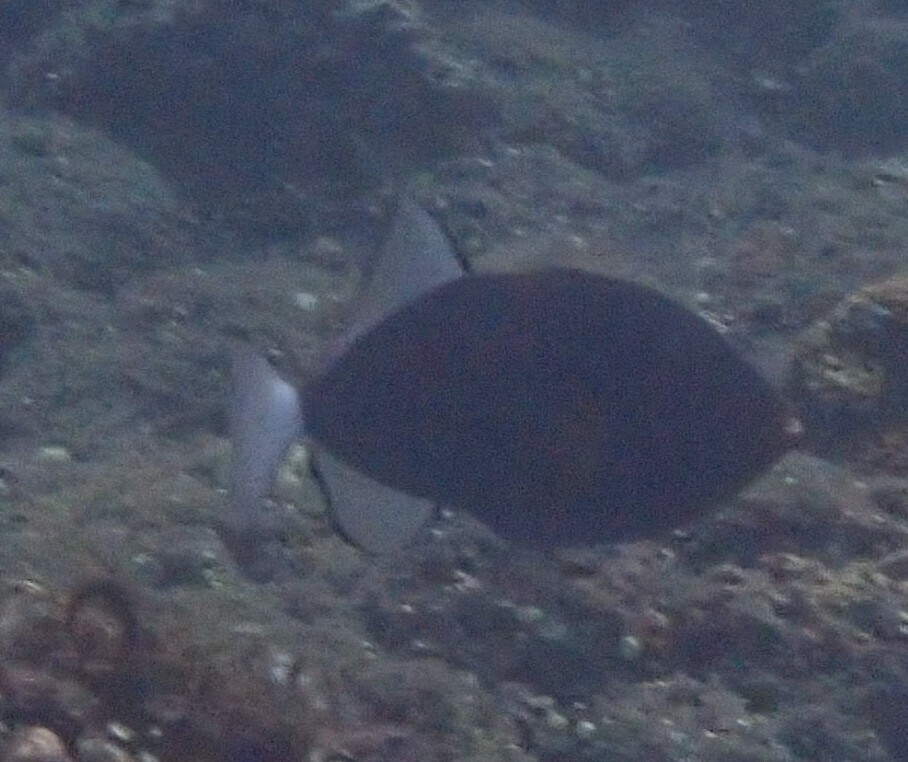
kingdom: Animalia
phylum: Chordata
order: Tetraodontiformes
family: Balistidae
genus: Melichthys
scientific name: Melichthys vidua
